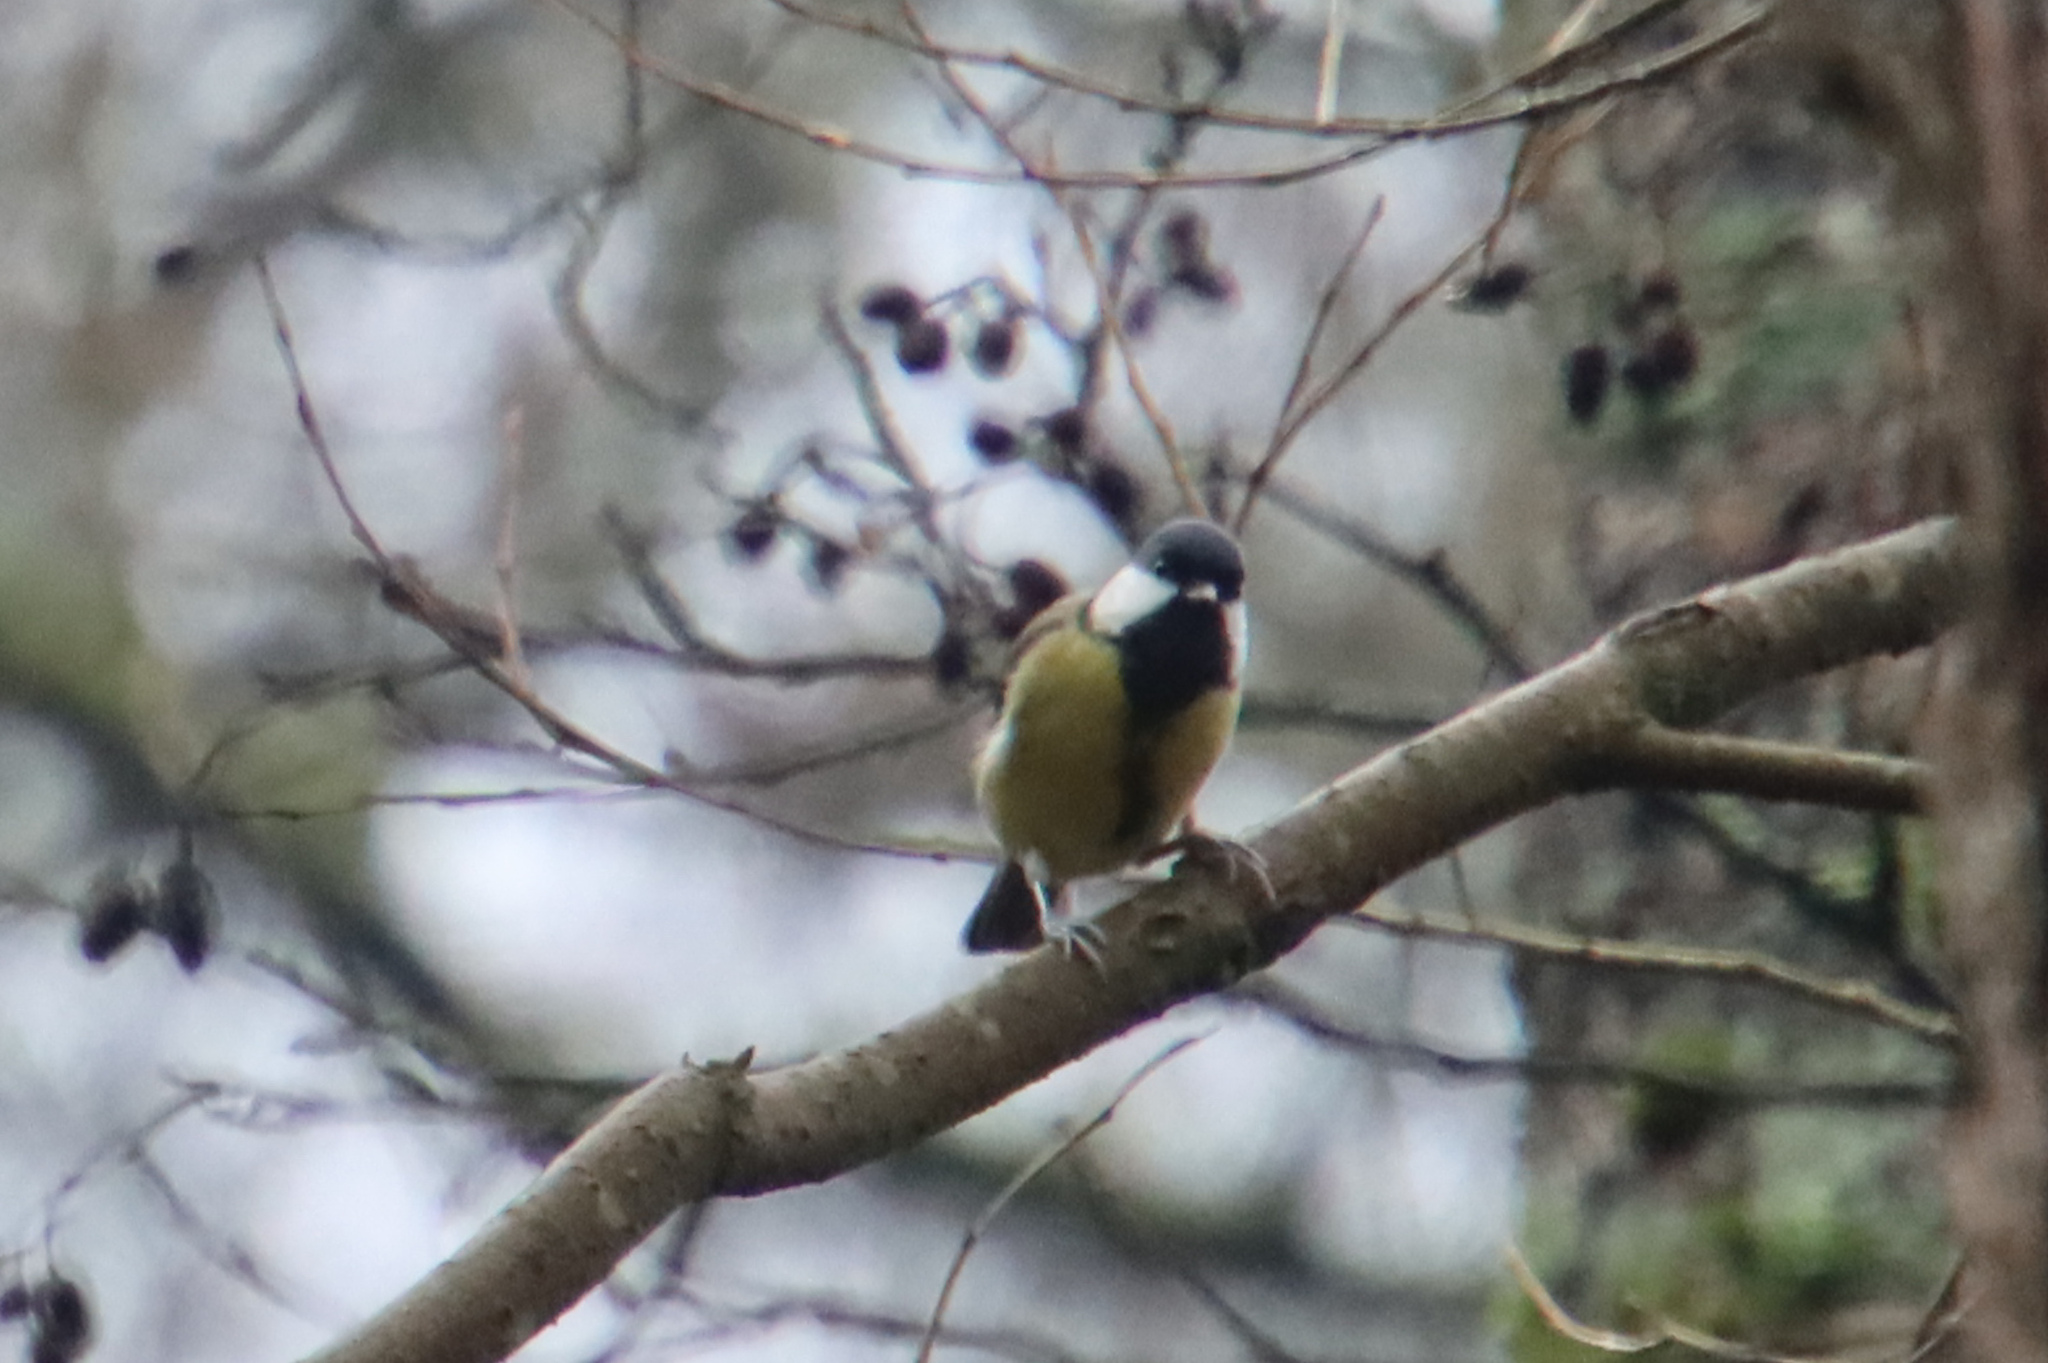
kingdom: Animalia
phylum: Chordata
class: Aves
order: Passeriformes
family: Paridae
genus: Parus
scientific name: Parus major
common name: Great tit
